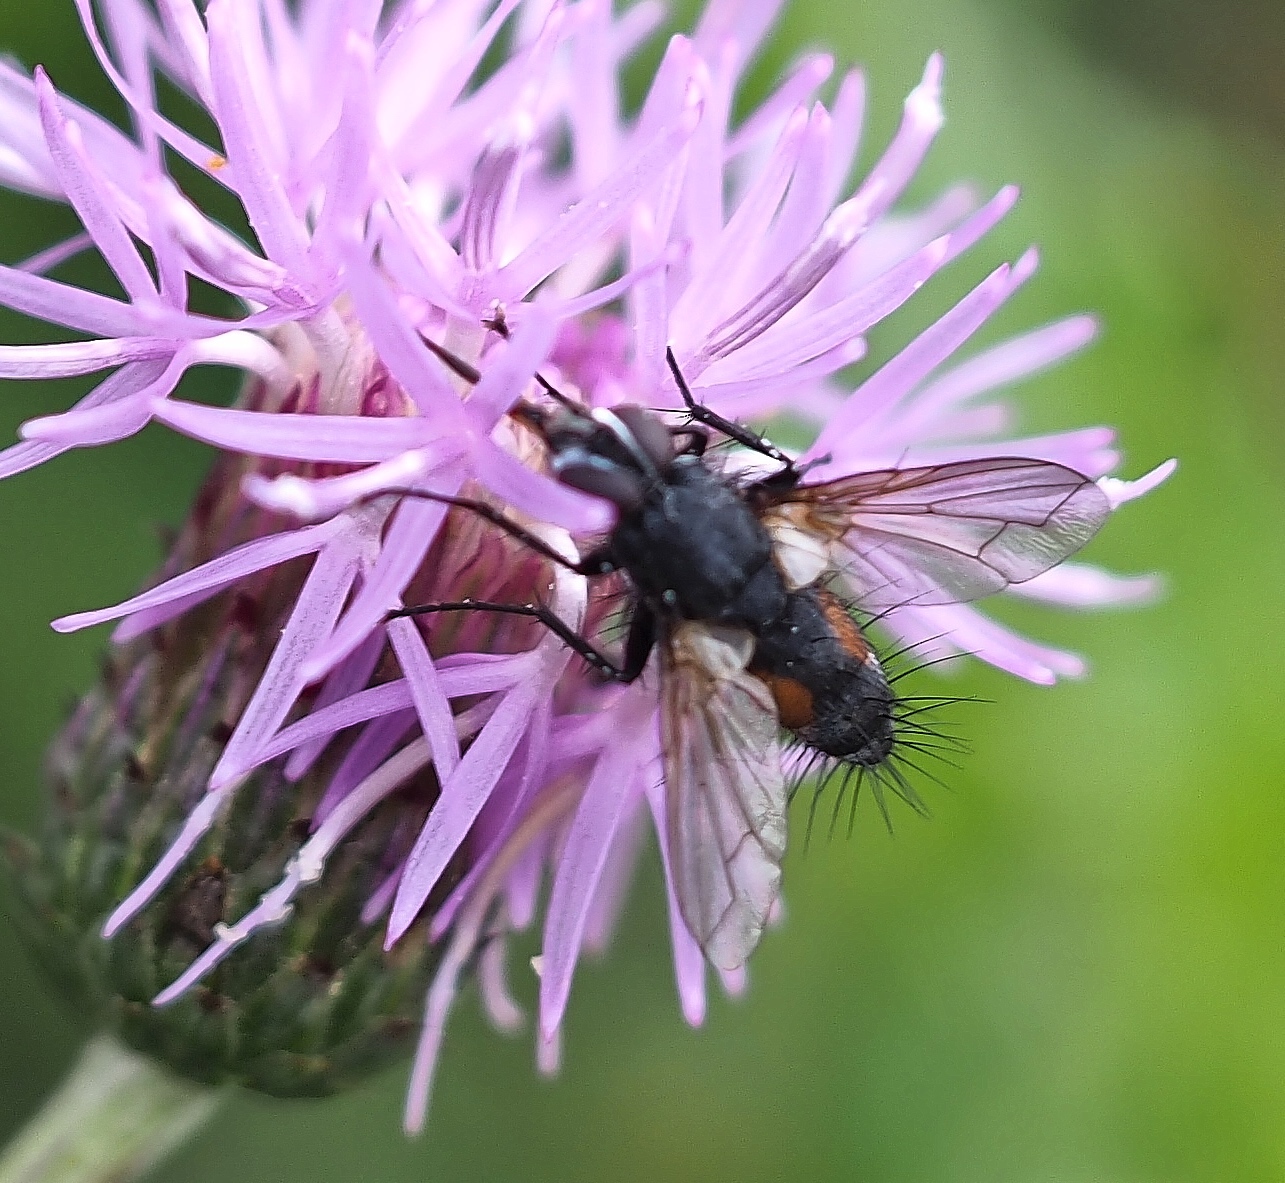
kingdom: Animalia
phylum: Arthropoda
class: Insecta
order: Diptera
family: Tachinidae
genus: Eriothrix
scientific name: Eriothrix rufomaculatus
